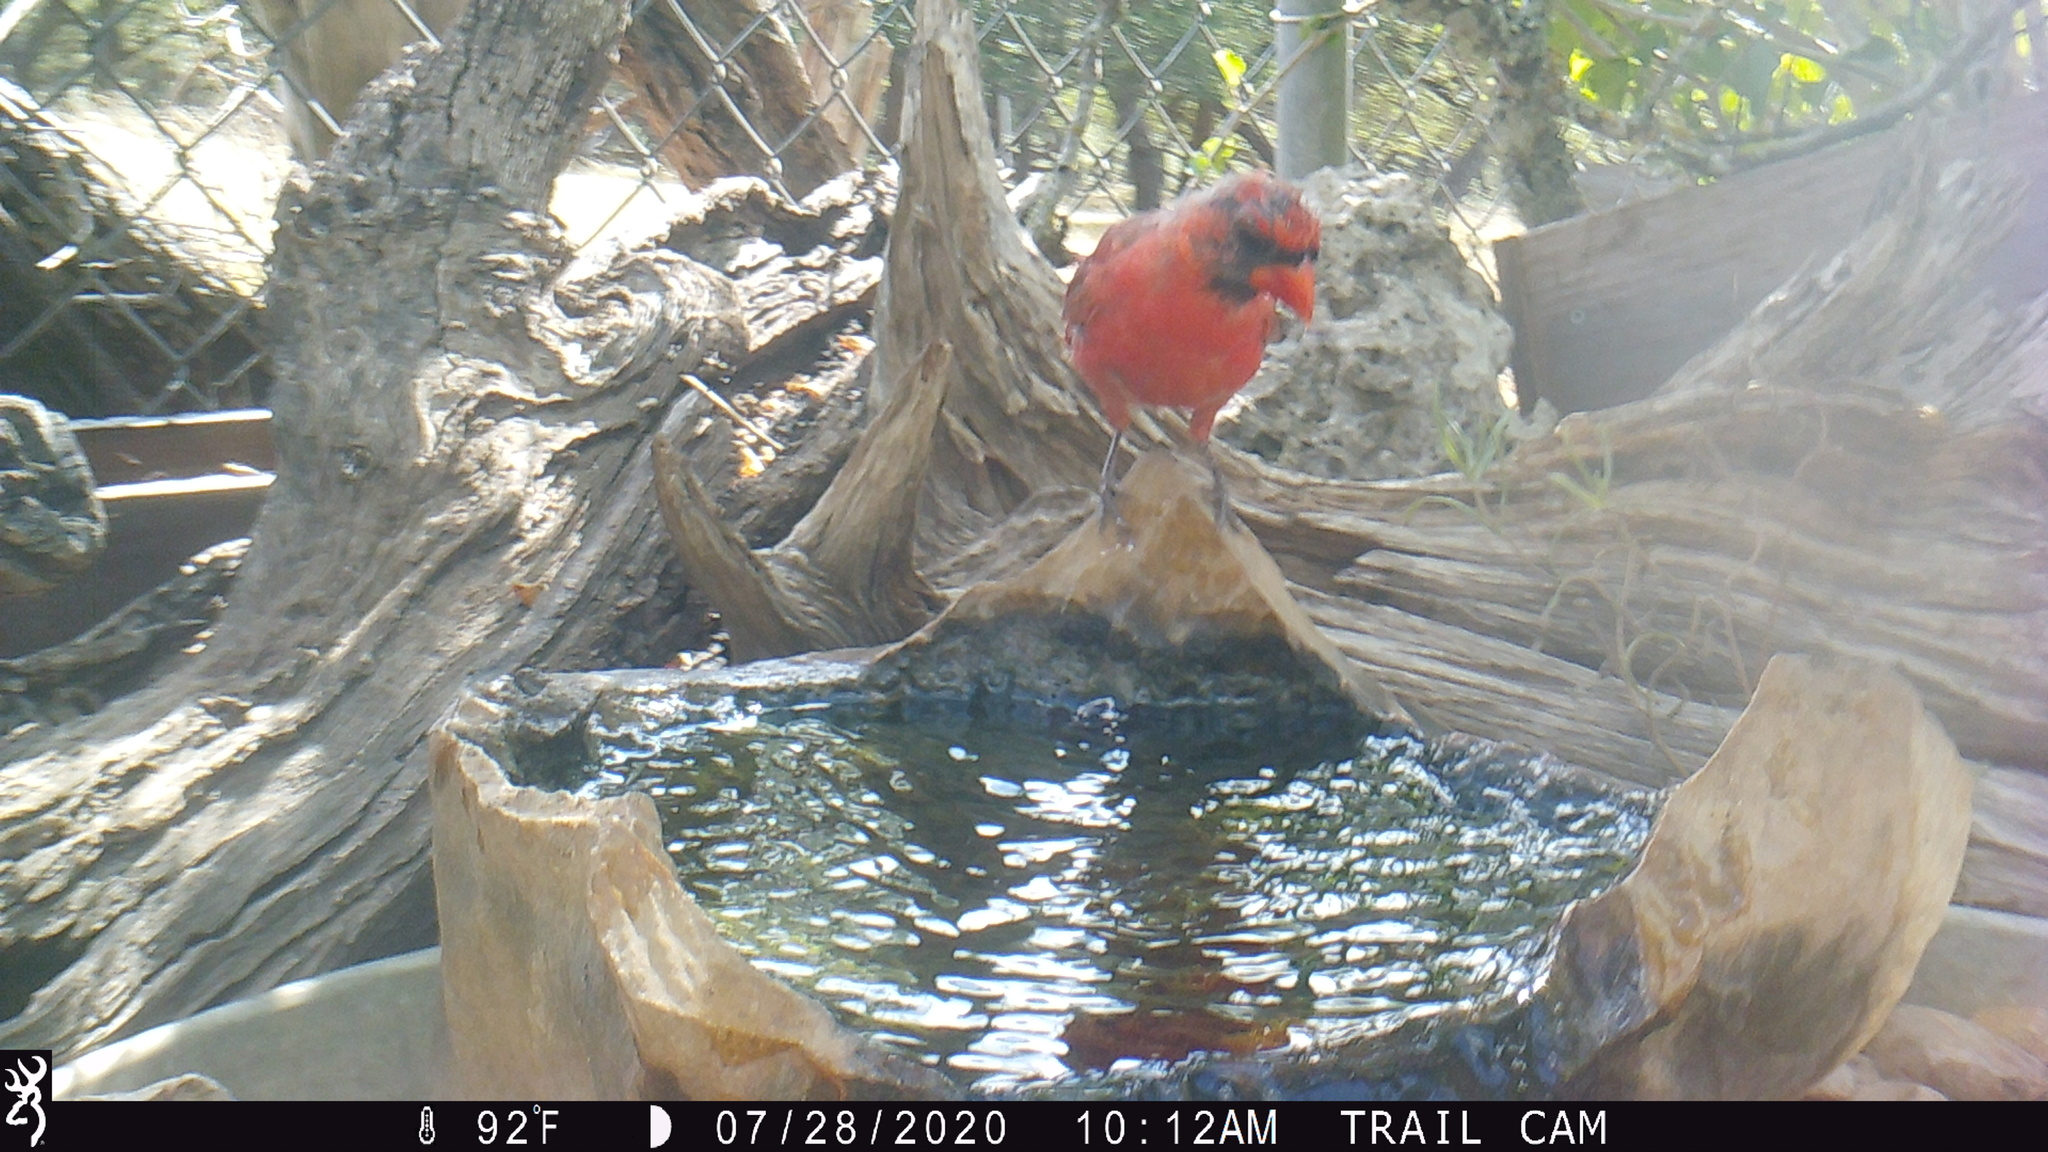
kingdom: Animalia
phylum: Chordata
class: Aves
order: Passeriformes
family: Cardinalidae
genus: Cardinalis
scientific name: Cardinalis cardinalis
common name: Northern cardinal
